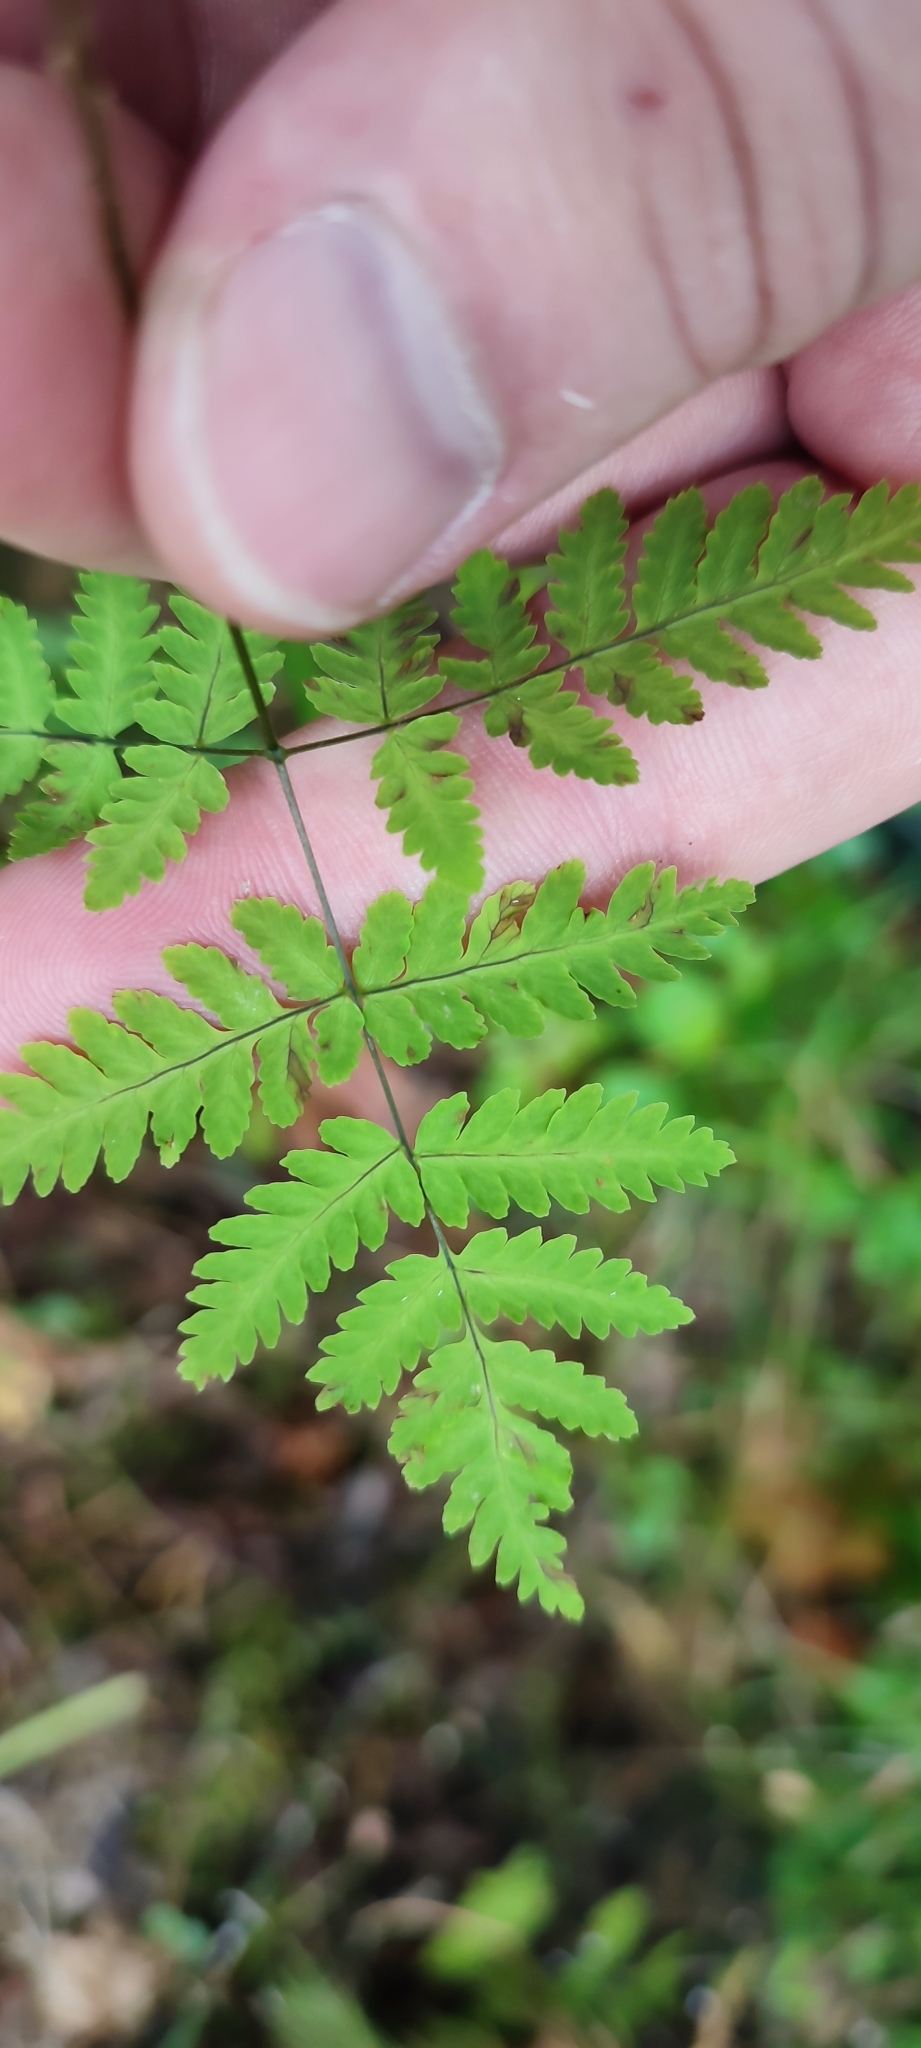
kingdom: Plantae
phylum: Tracheophyta
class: Polypodiopsida
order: Polypodiales
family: Cystopteridaceae
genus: Gymnocarpium
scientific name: Gymnocarpium dryopteris
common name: Oak fern
